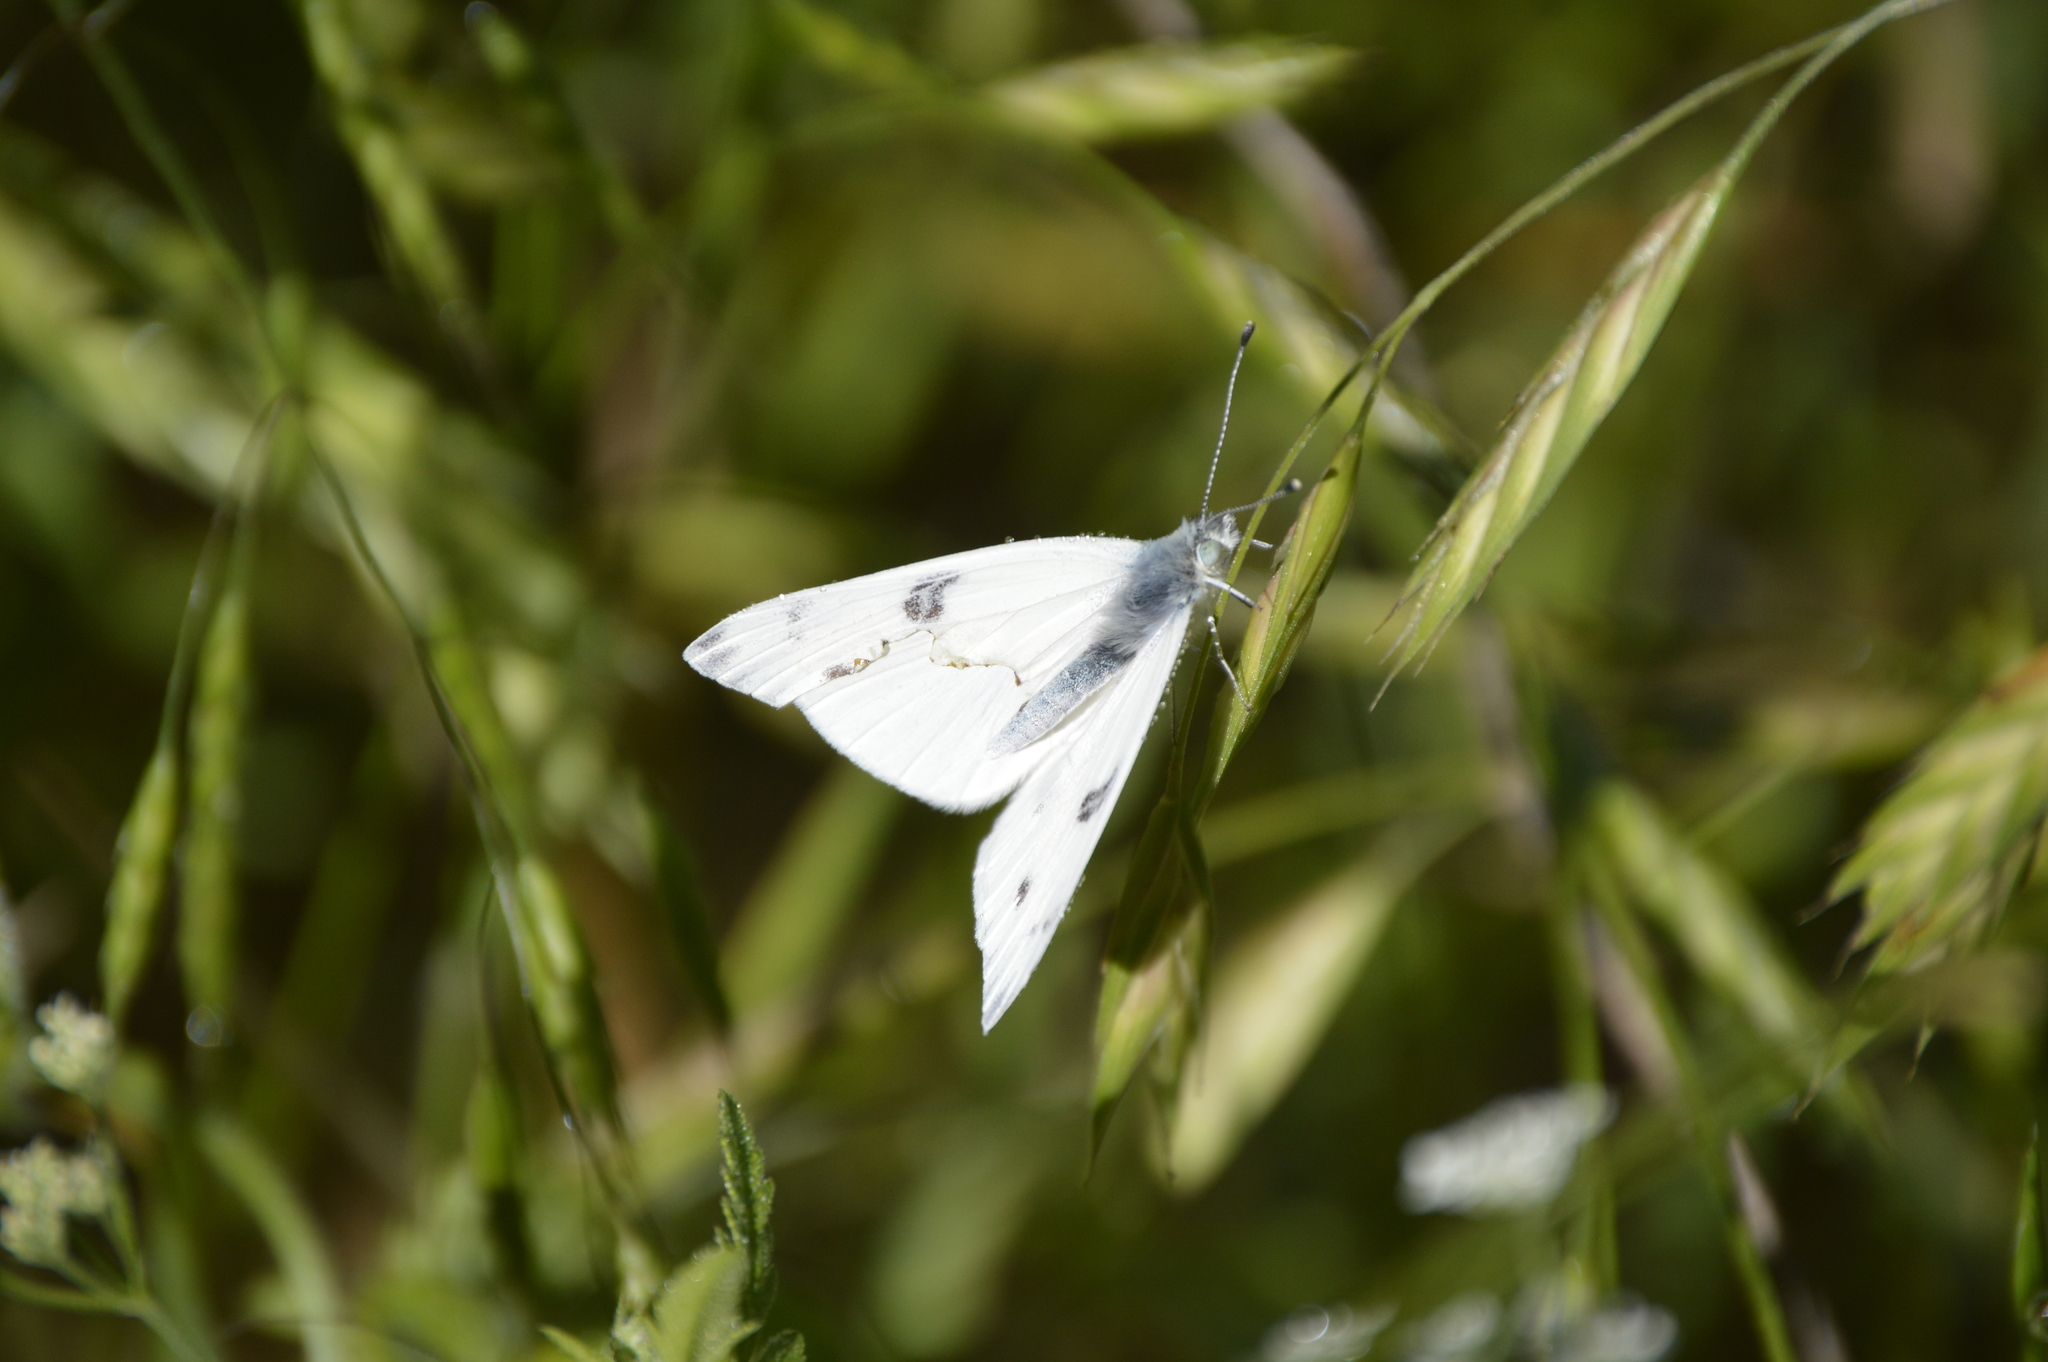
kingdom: Animalia
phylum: Arthropoda
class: Insecta
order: Lepidoptera
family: Pieridae
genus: Pontia
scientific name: Pontia protodice
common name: Checkered white
